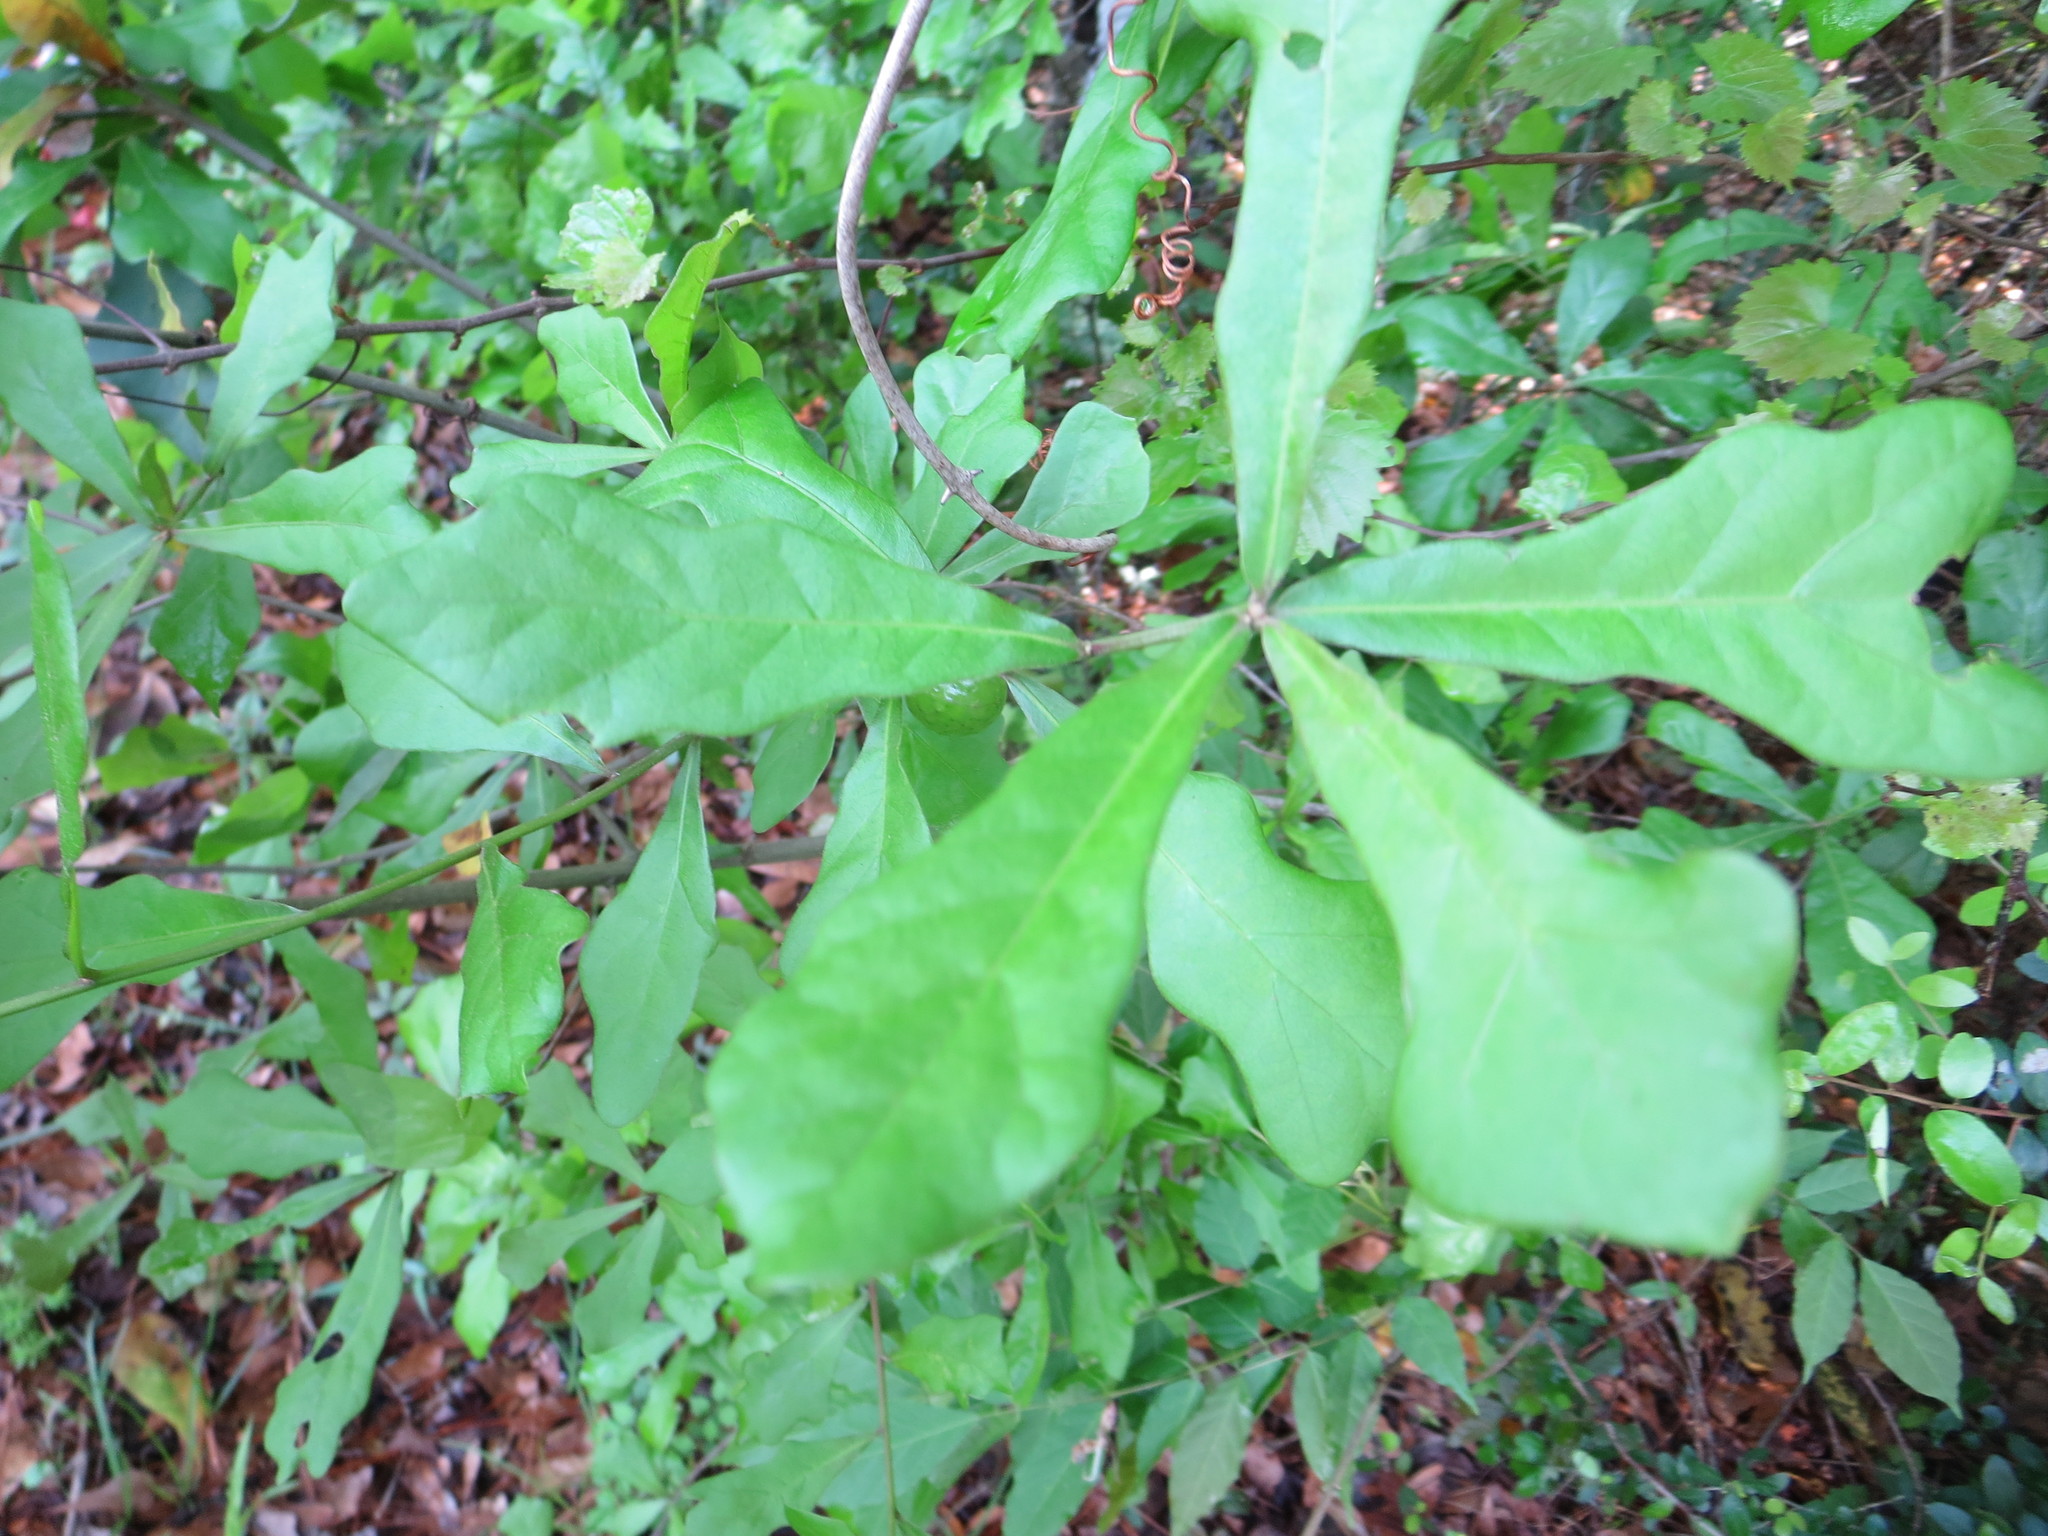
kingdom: Plantae
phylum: Tracheophyta
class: Magnoliopsida
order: Fagales
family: Fagaceae
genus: Quercus
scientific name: Quercus nigra
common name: Water oak
